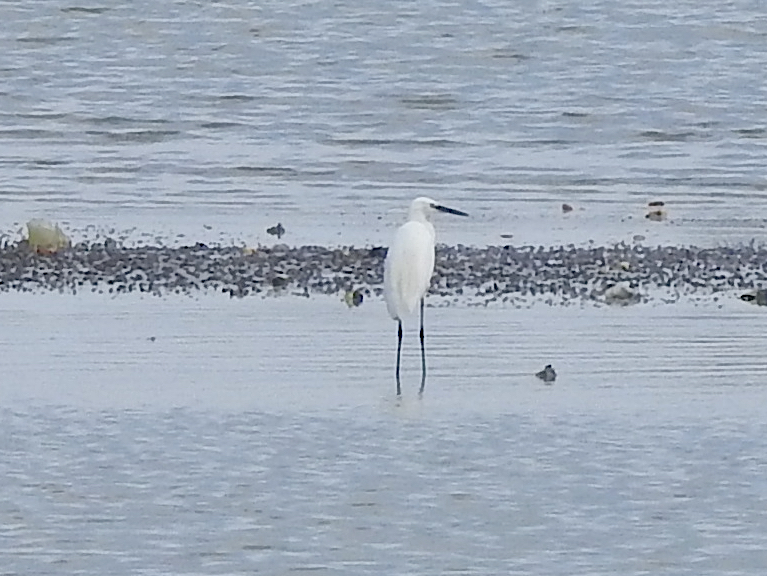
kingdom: Animalia
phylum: Chordata
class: Aves
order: Pelecaniformes
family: Ardeidae
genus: Egretta
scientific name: Egretta garzetta
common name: Little egret
